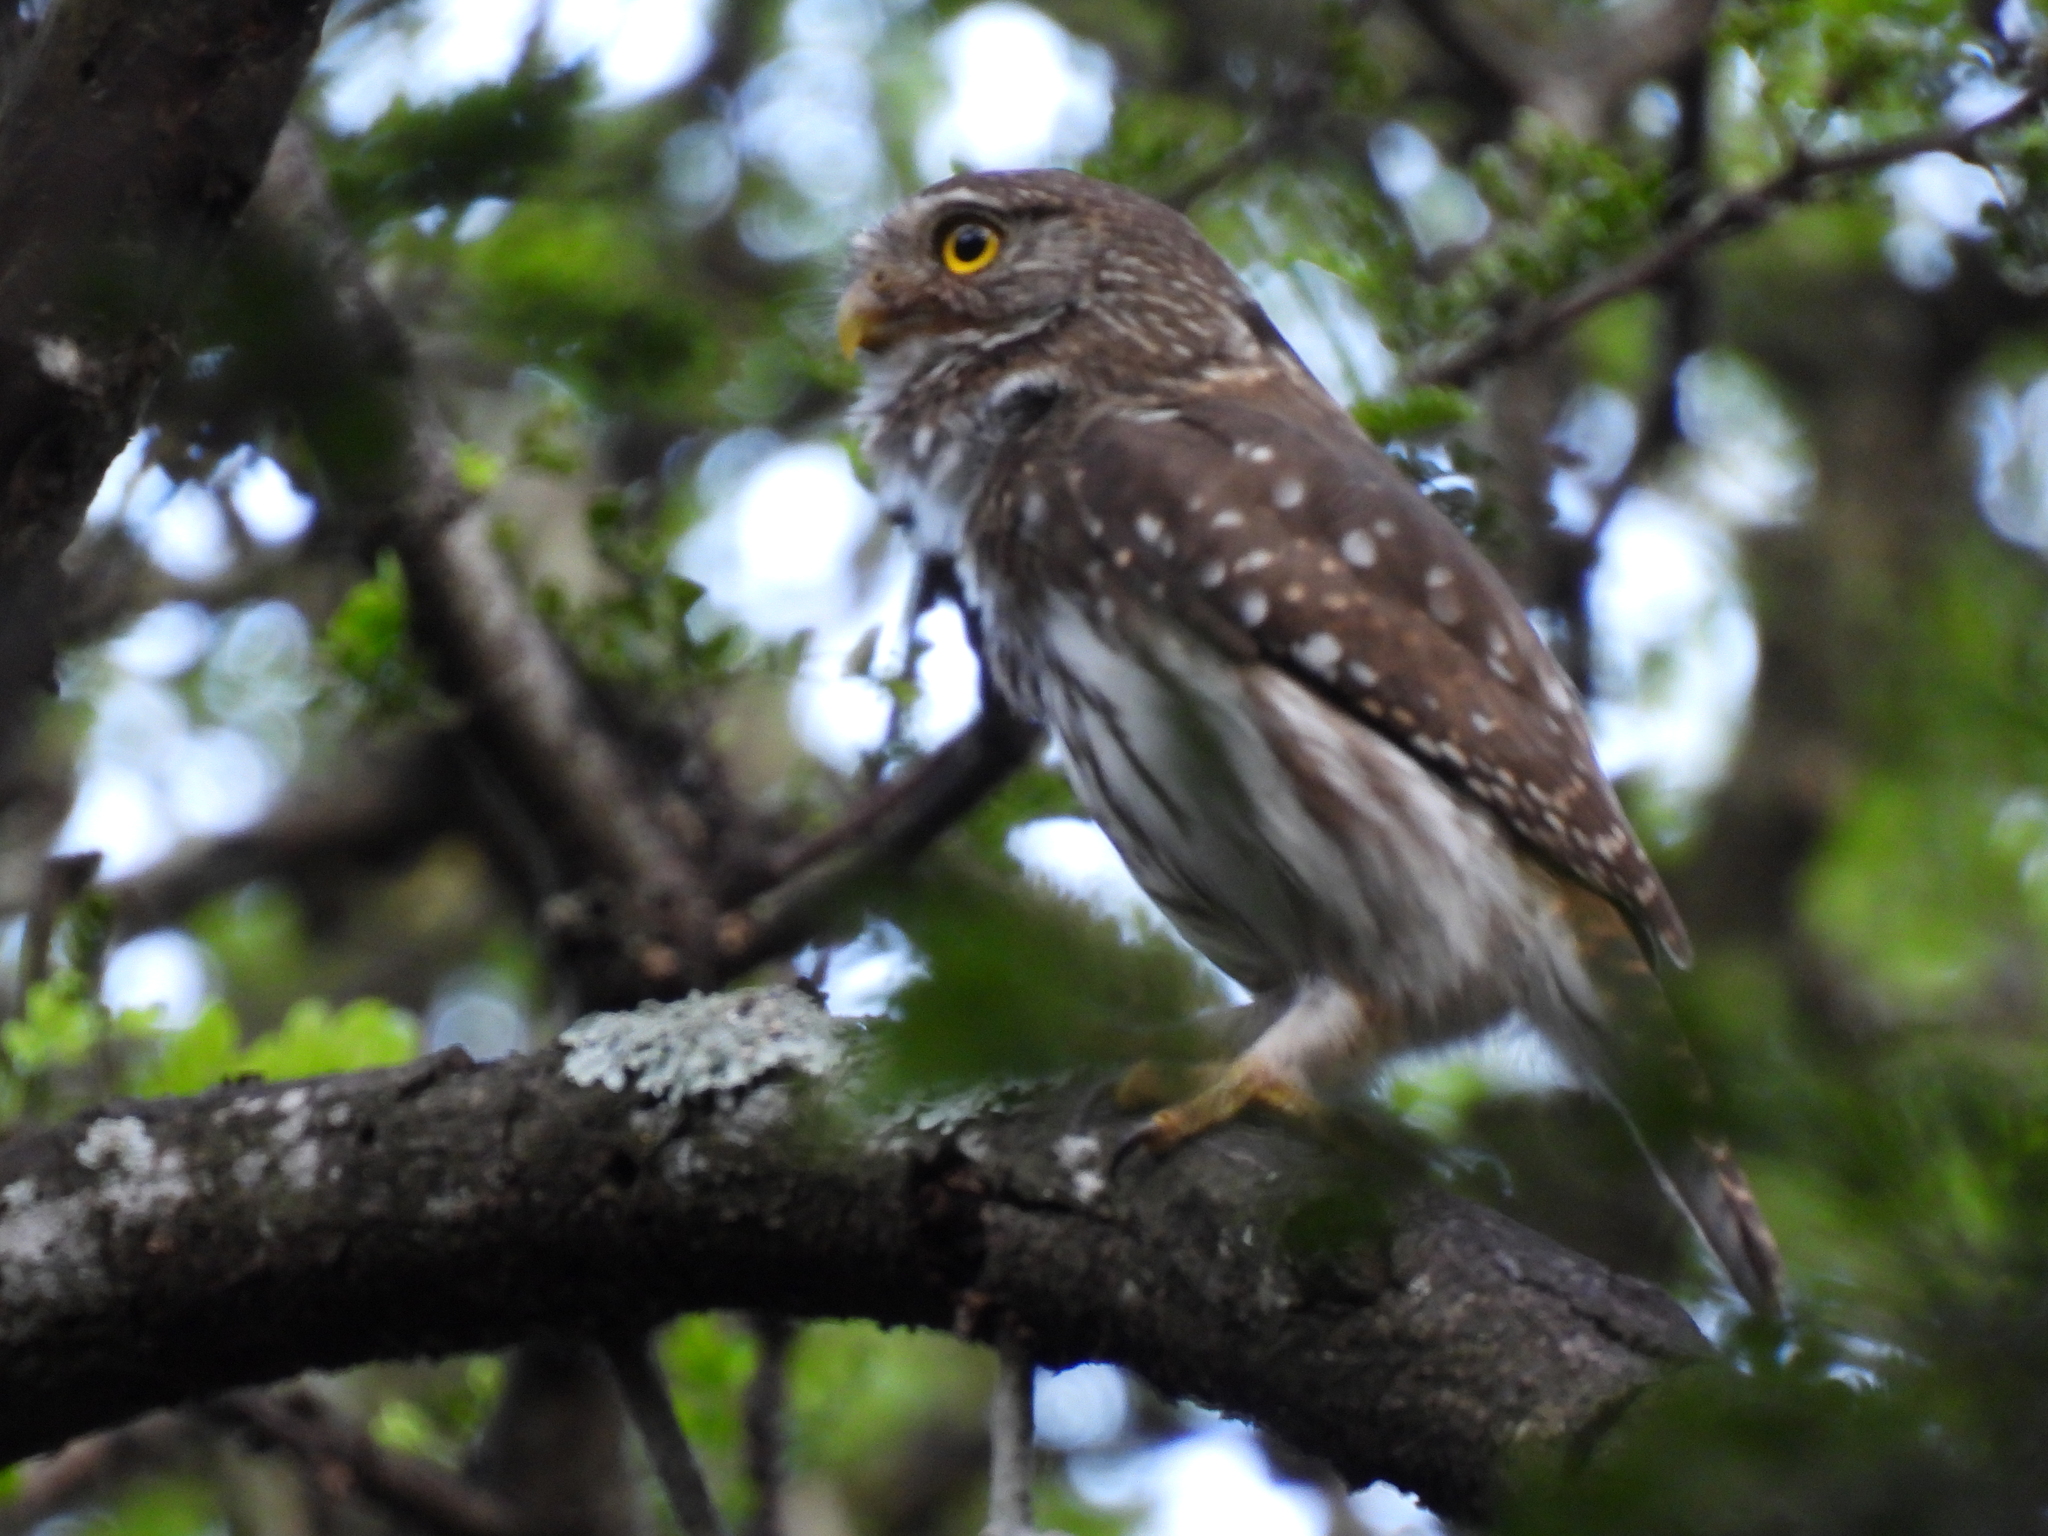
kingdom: Animalia
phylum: Chordata
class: Aves
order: Strigiformes
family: Strigidae
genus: Glaucidium
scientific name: Glaucidium brasilianum
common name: Ferruginous pygmy-owl
